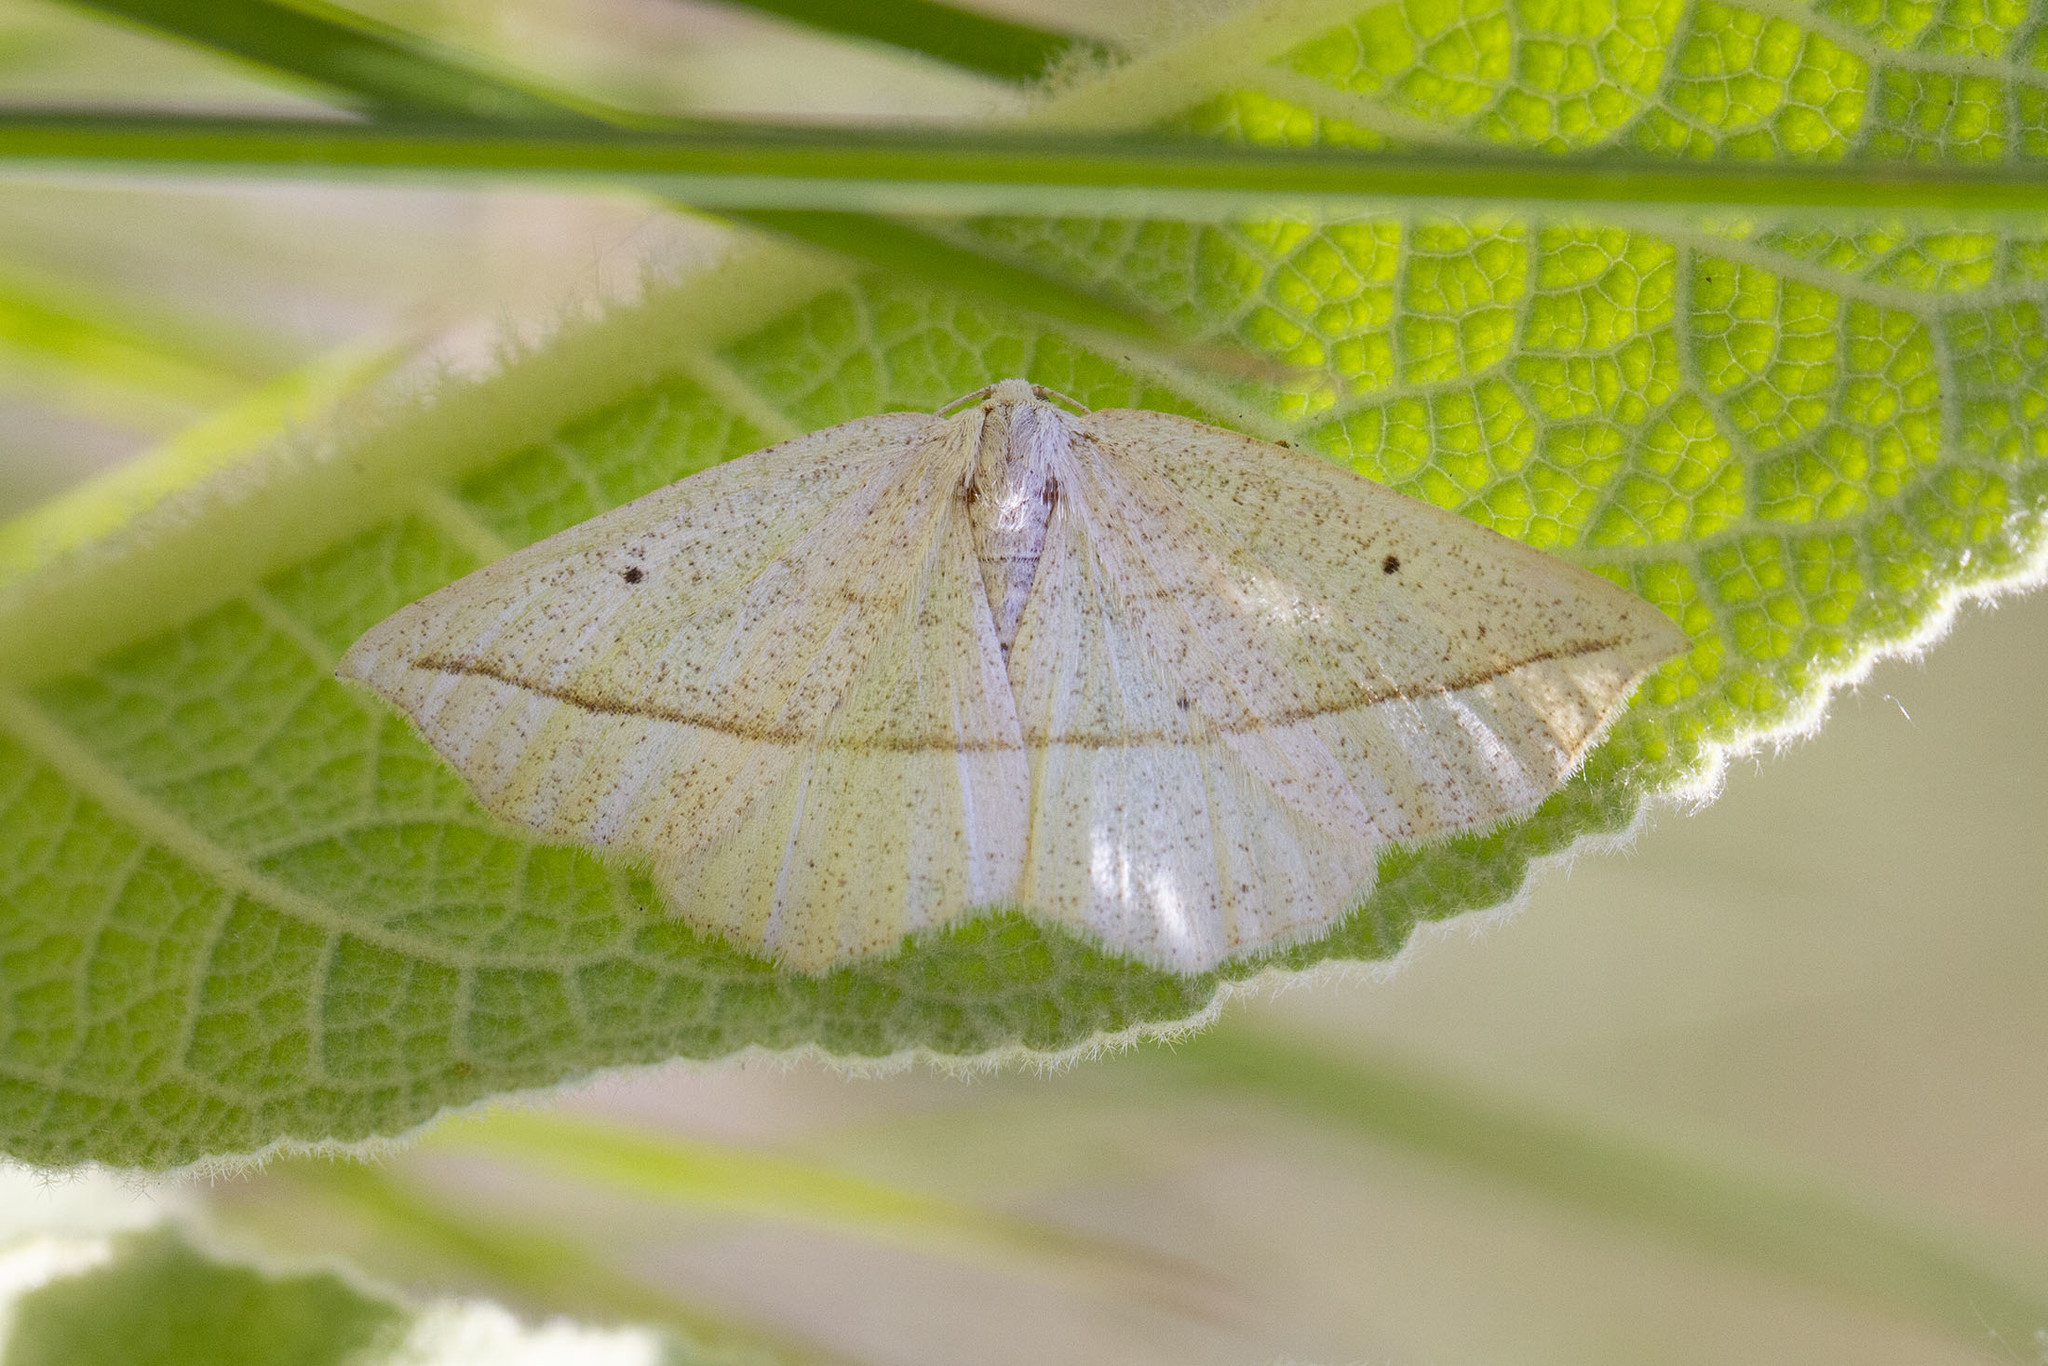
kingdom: Animalia
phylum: Arthropoda
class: Insecta
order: Lepidoptera
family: Geometridae
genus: Eusarca
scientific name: Eusarca confusaria
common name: Confused eusarca
